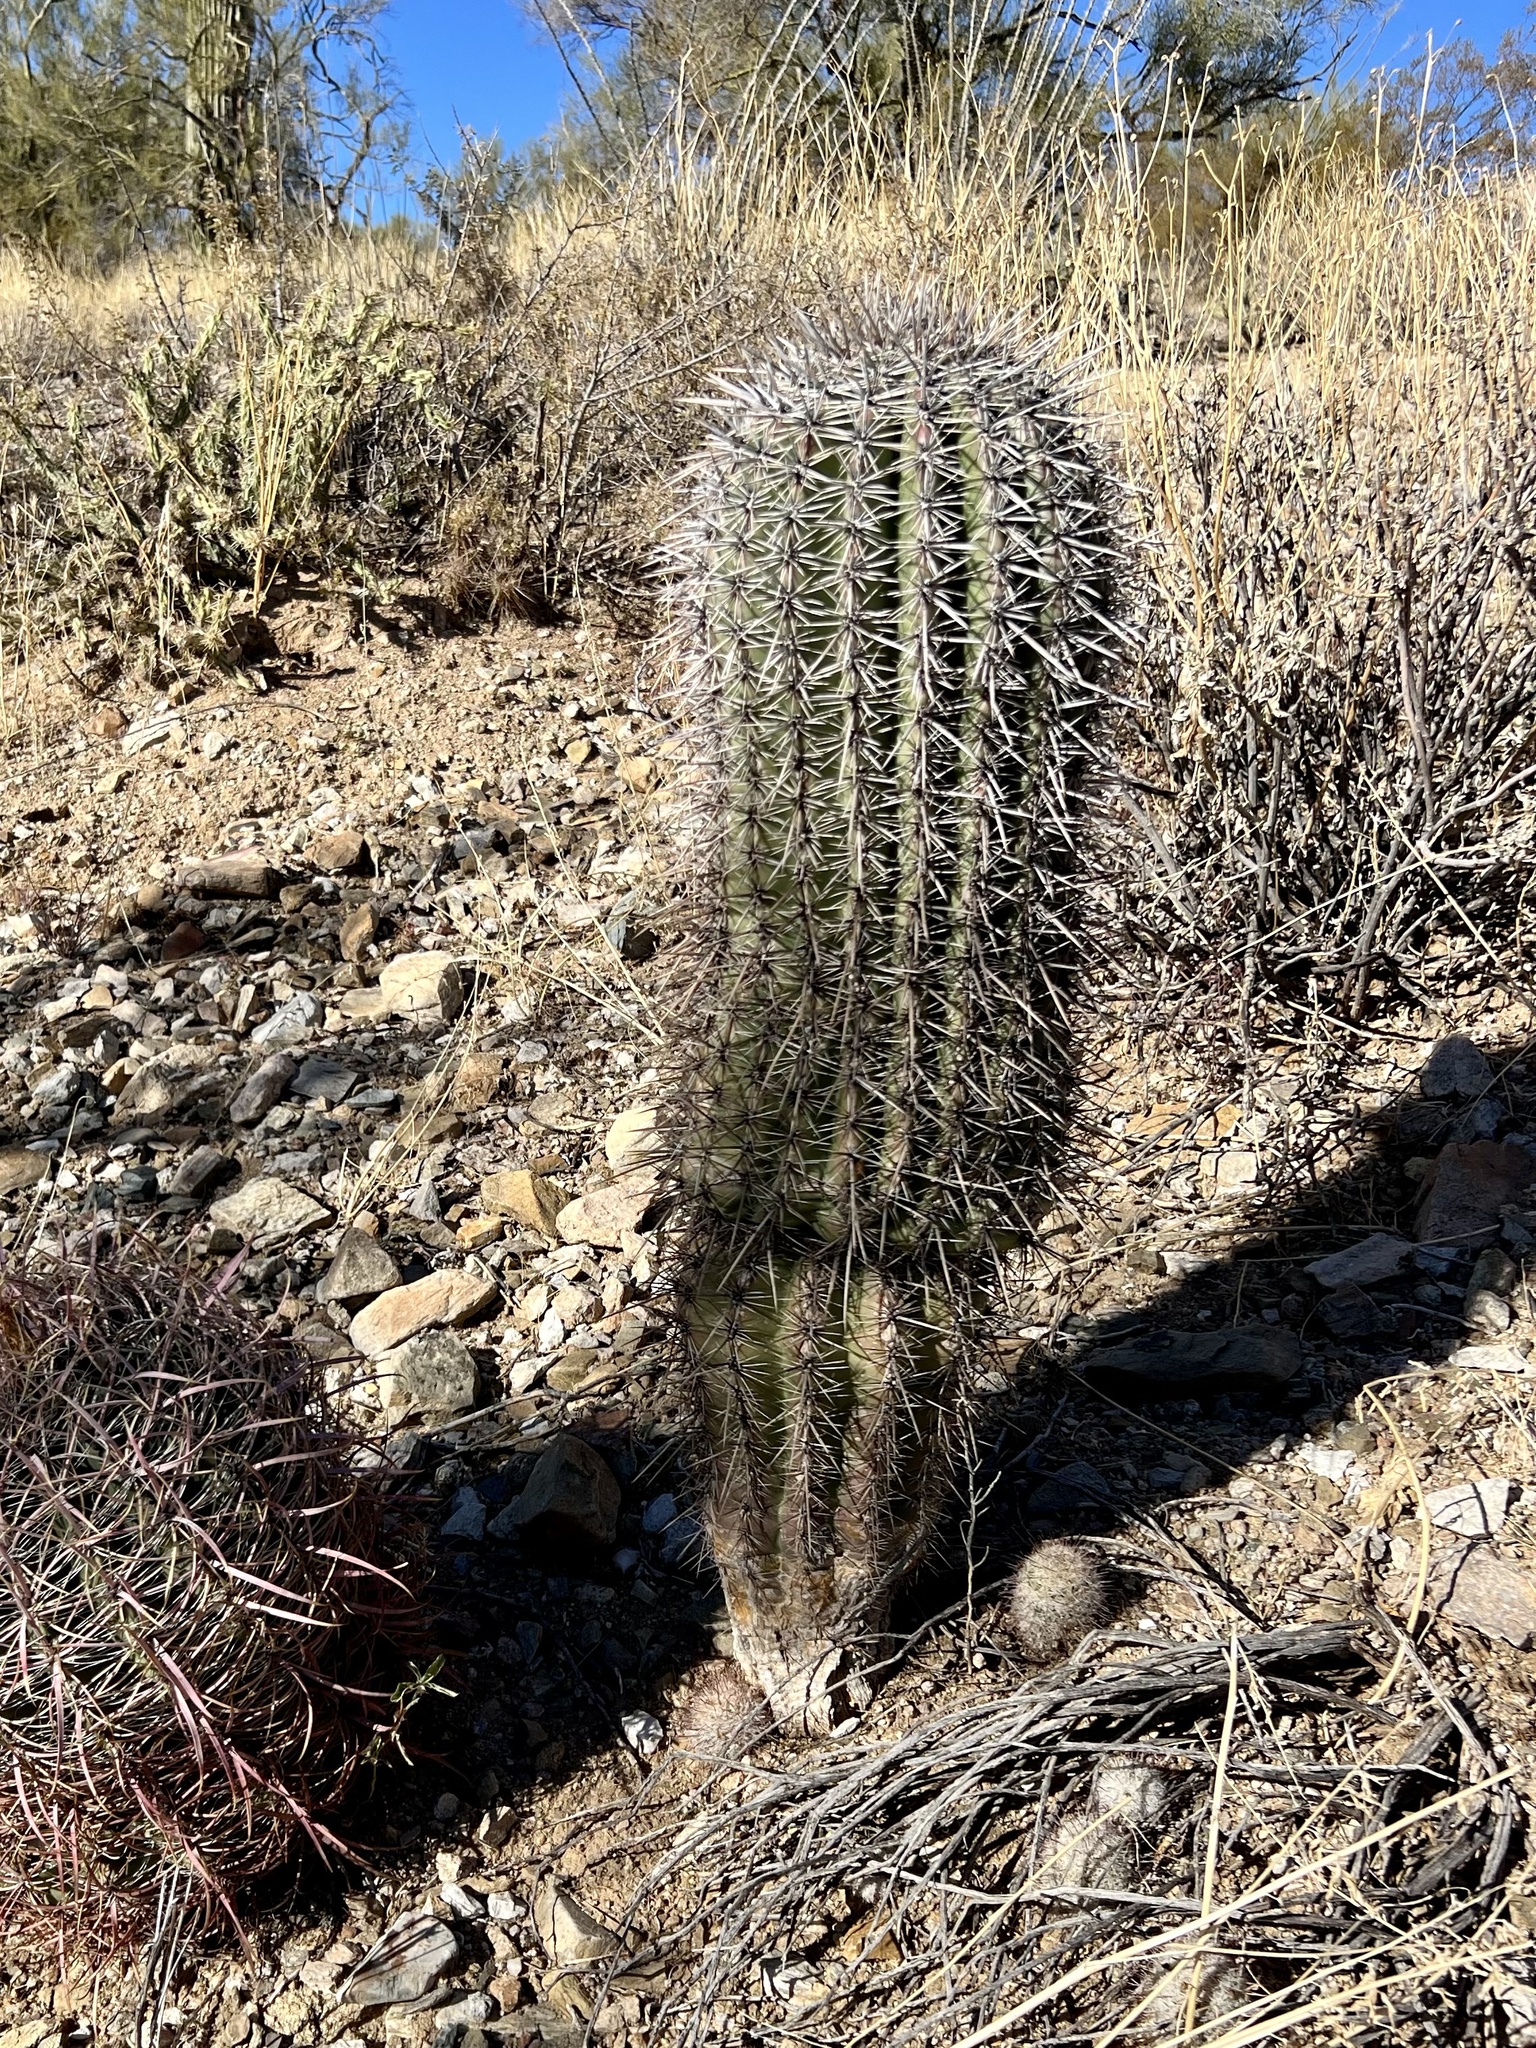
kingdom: Plantae
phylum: Tracheophyta
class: Magnoliopsida
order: Caryophyllales
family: Cactaceae
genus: Carnegiea
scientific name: Carnegiea gigantea
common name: Saguaro
